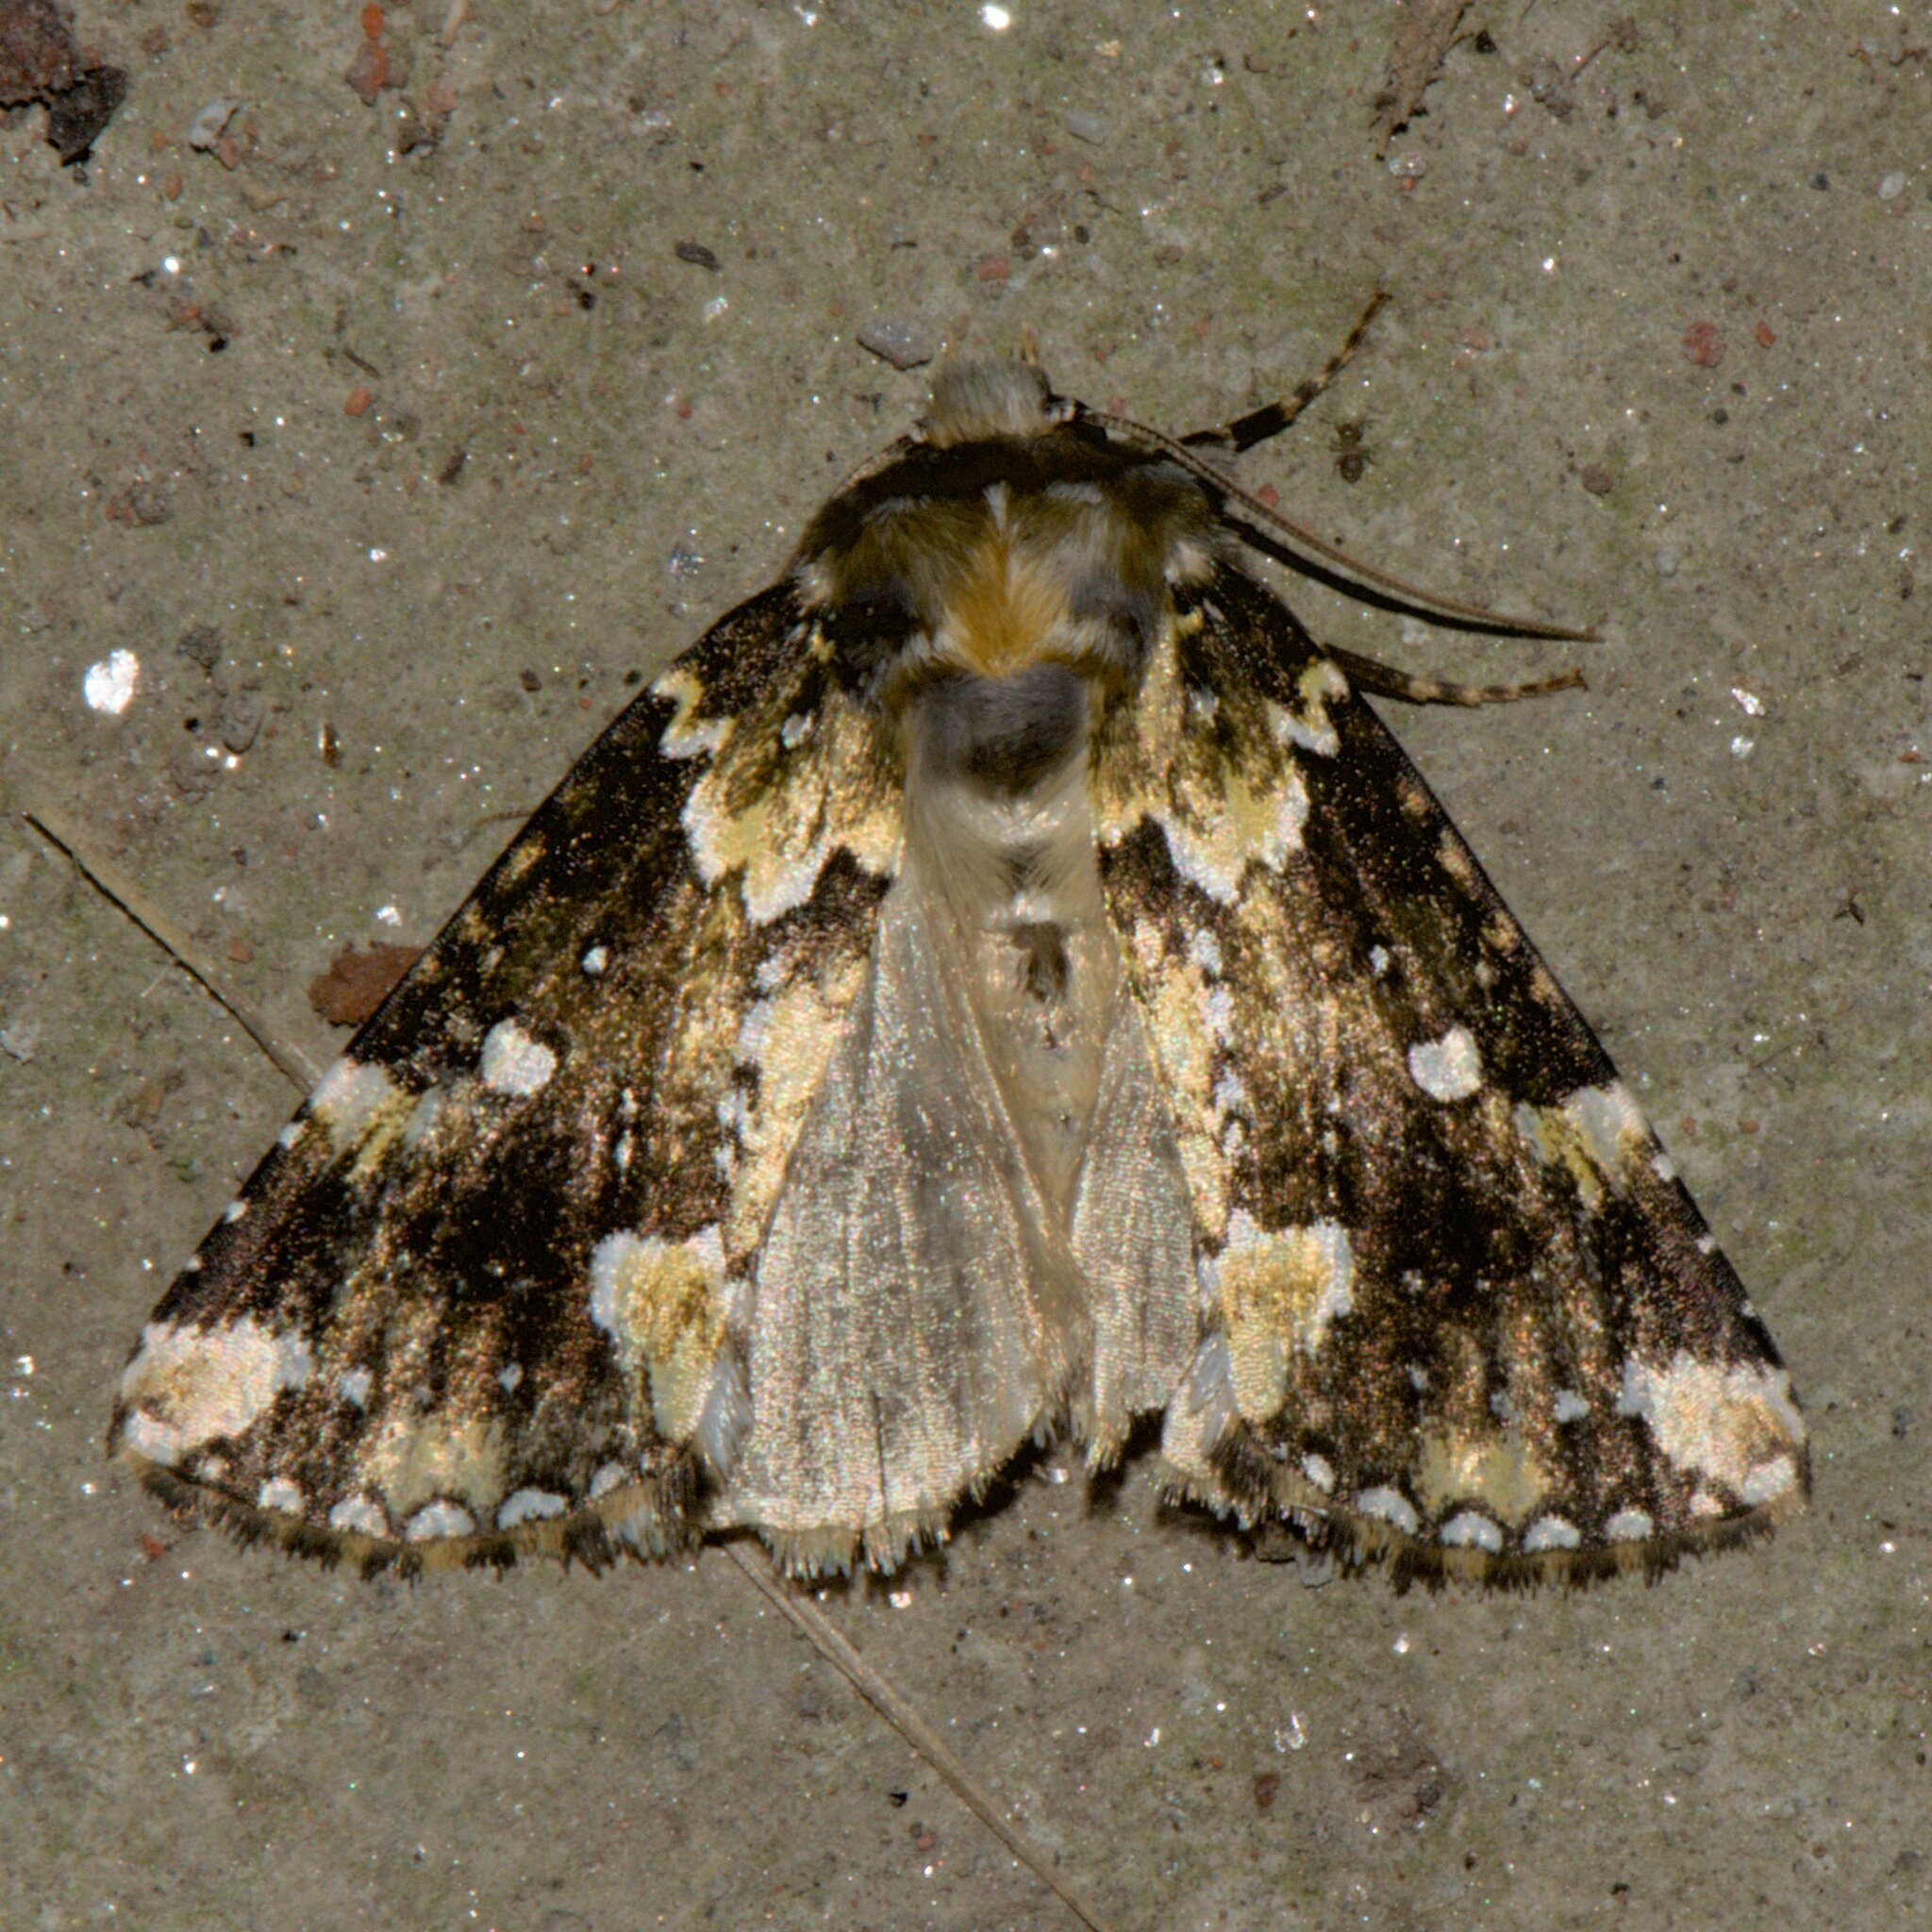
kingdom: Animalia
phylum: Arthropoda
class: Insecta
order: Lepidoptera
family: Drepanidae
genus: Gaurena
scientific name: Gaurena florens
